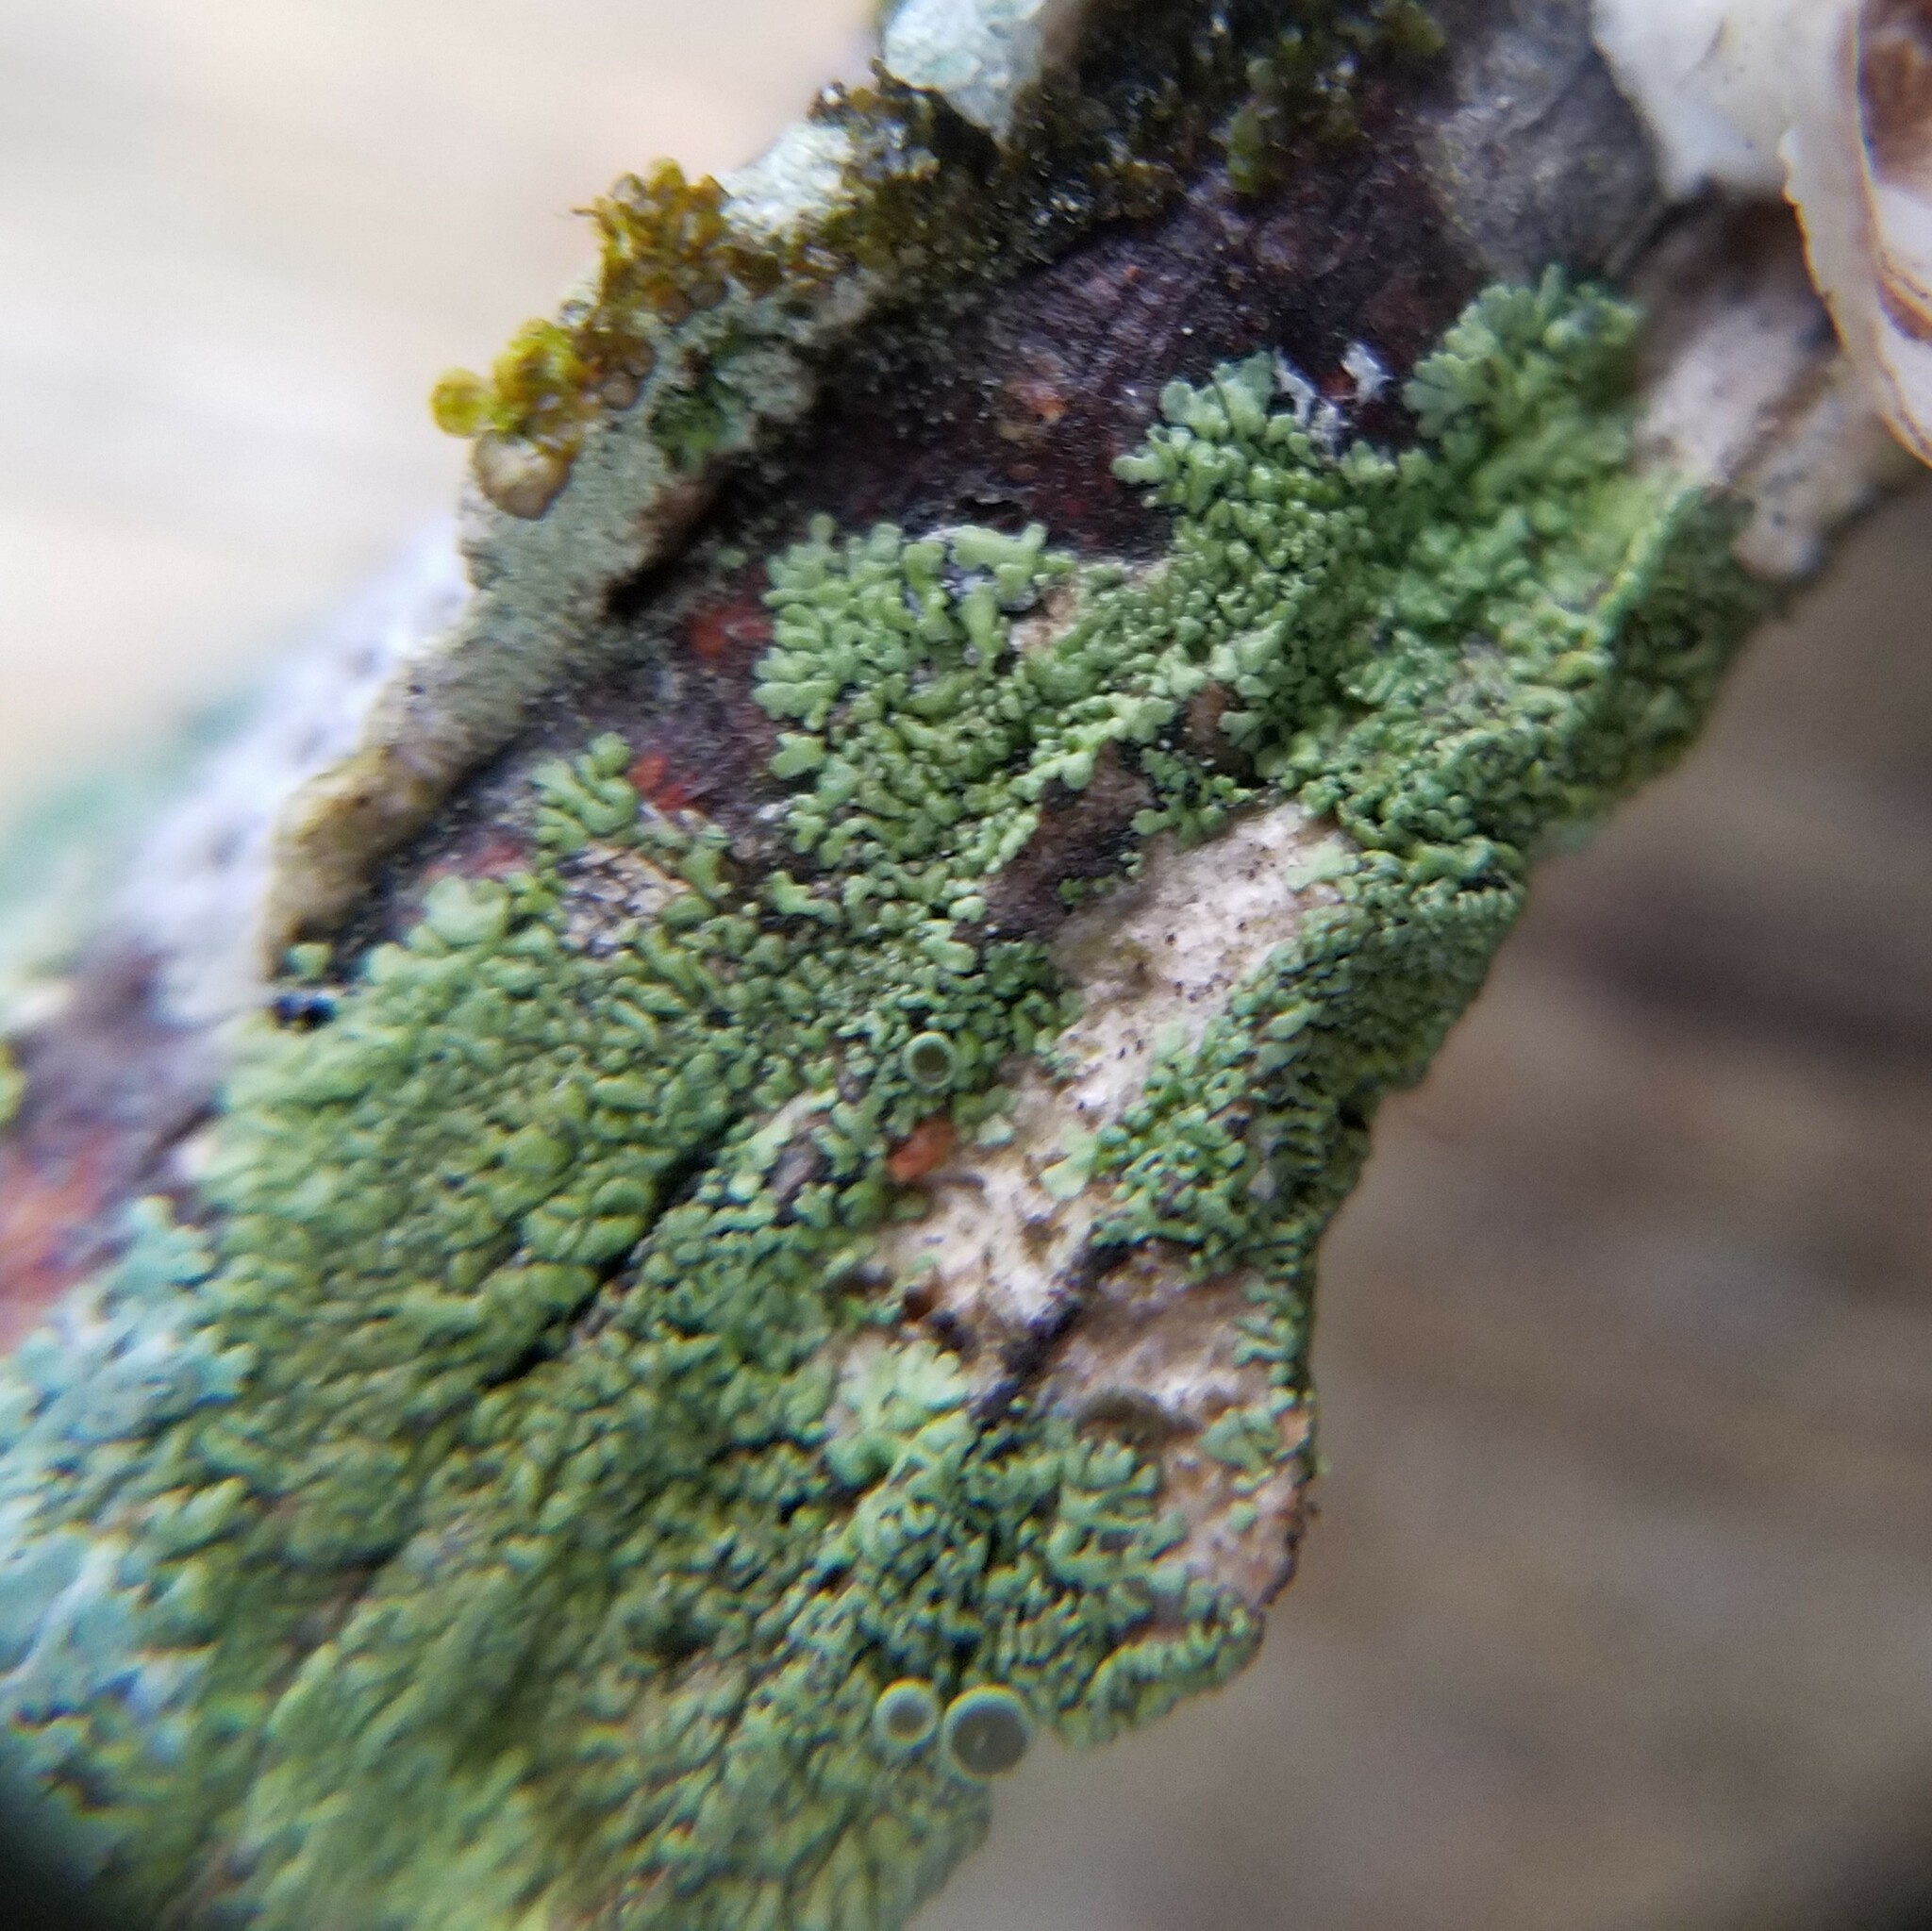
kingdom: Fungi
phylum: Ascomycota
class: Lecanoromycetes
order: Caliciales
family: Physciaceae
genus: Hyperphyscia
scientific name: Hyperphyscia syncolla
